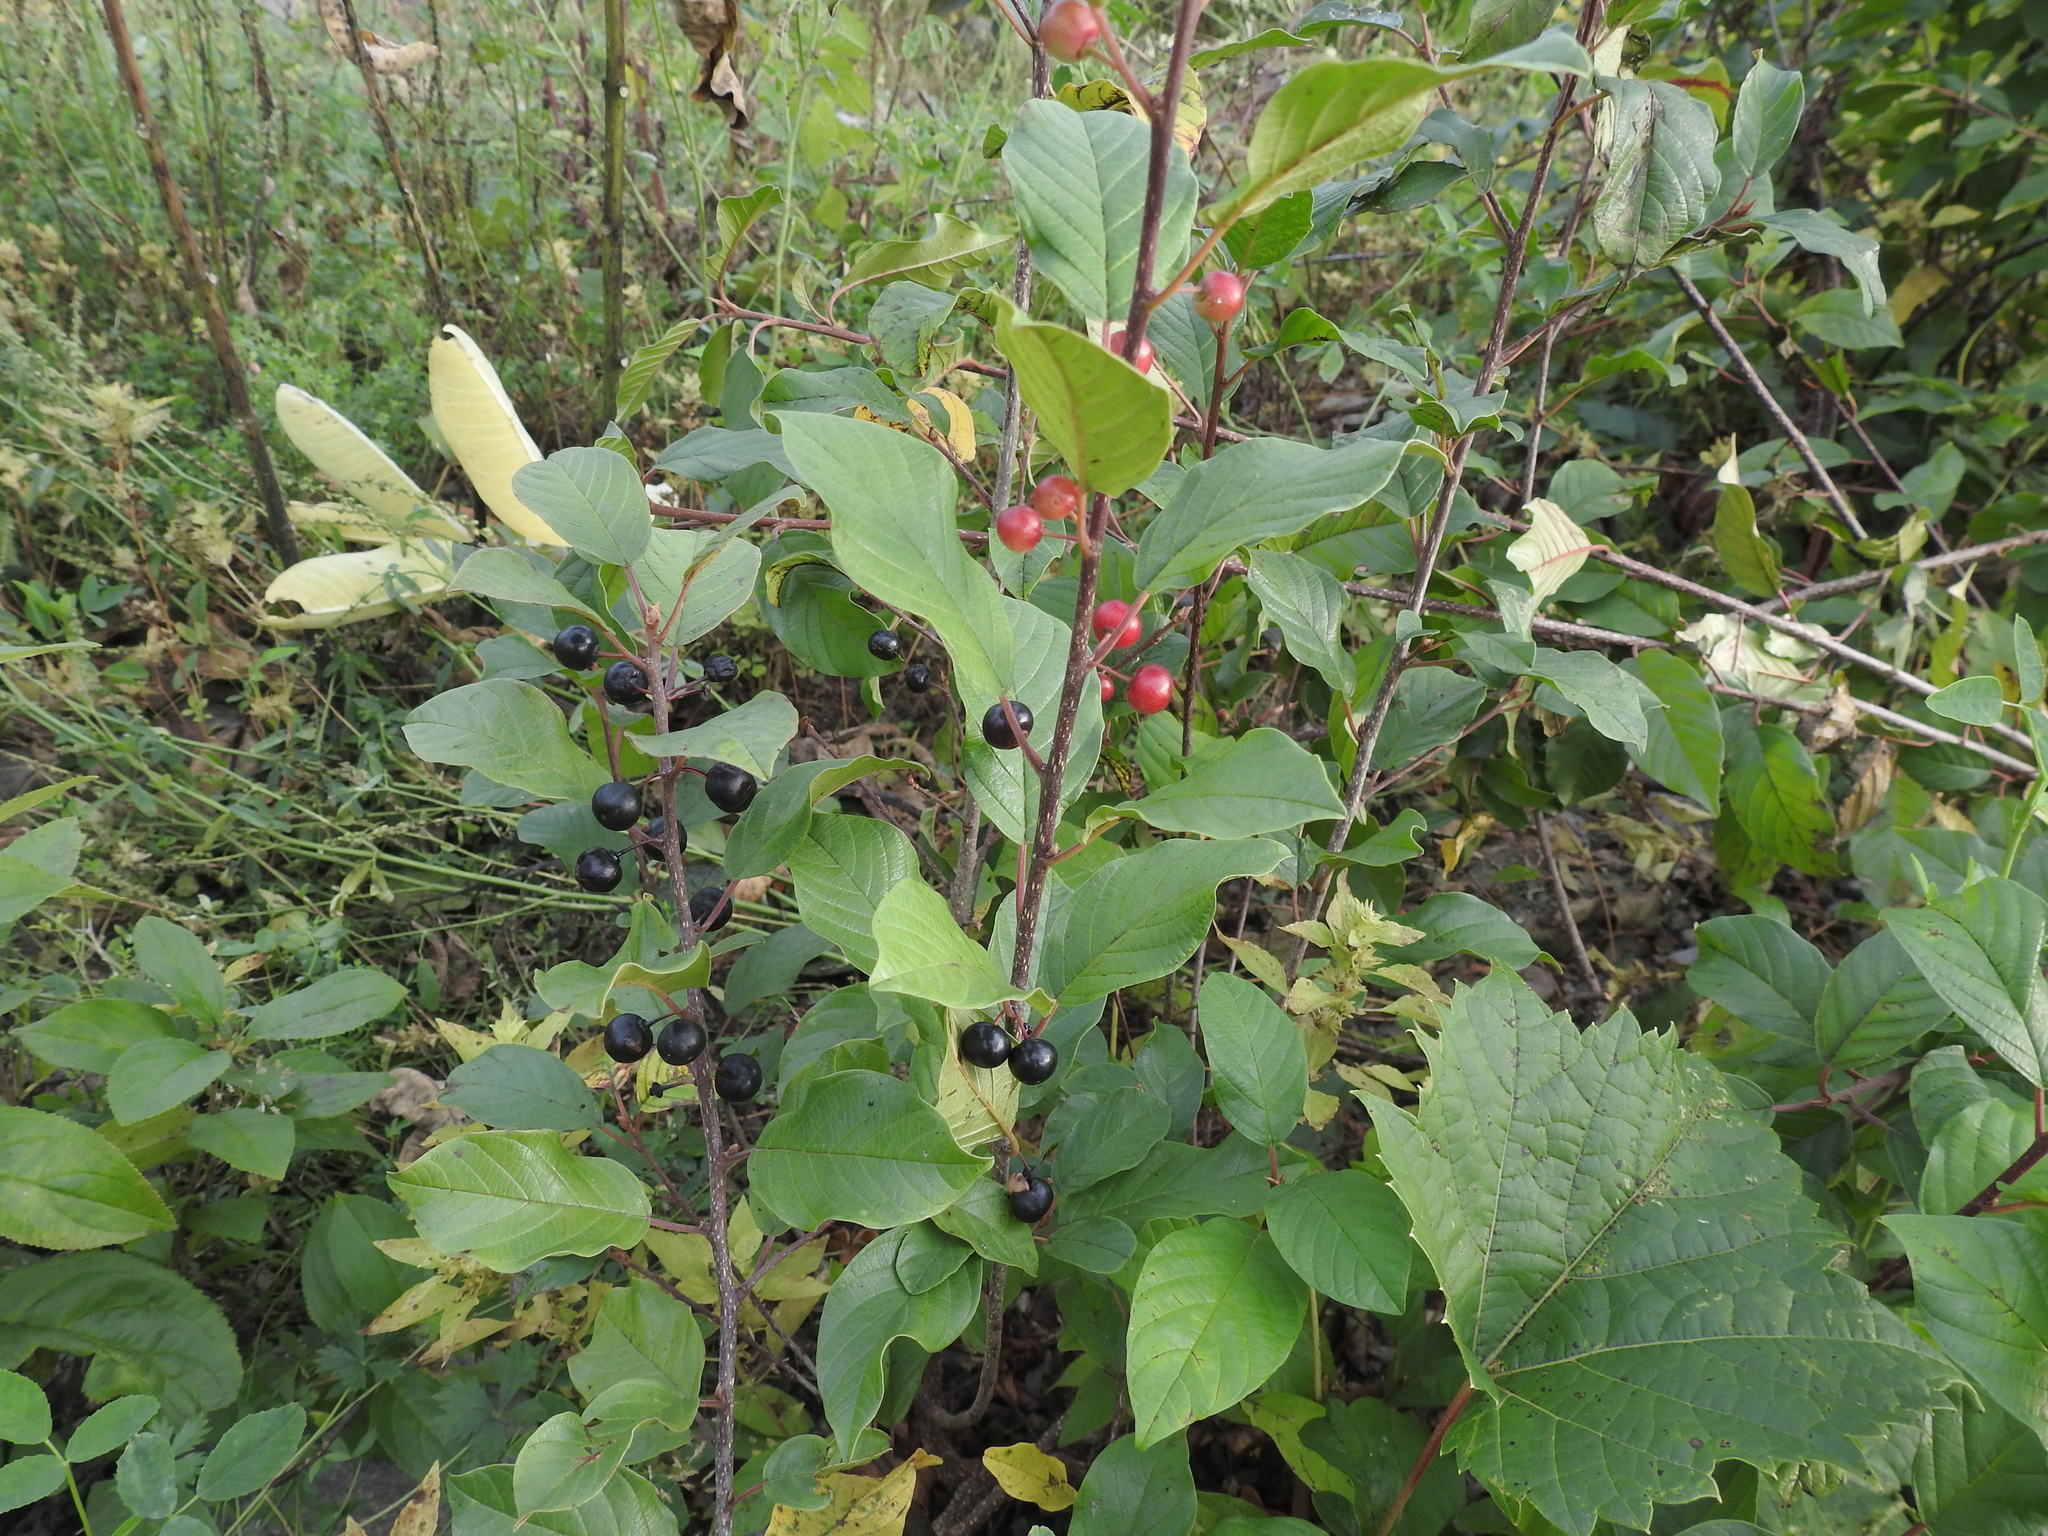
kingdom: Plantae
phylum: Tracheophyta
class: Magnoliopsida
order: Rosales
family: Rhamnaceae
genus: Frangula
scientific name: Frangula alnus
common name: Alder buckthorn
